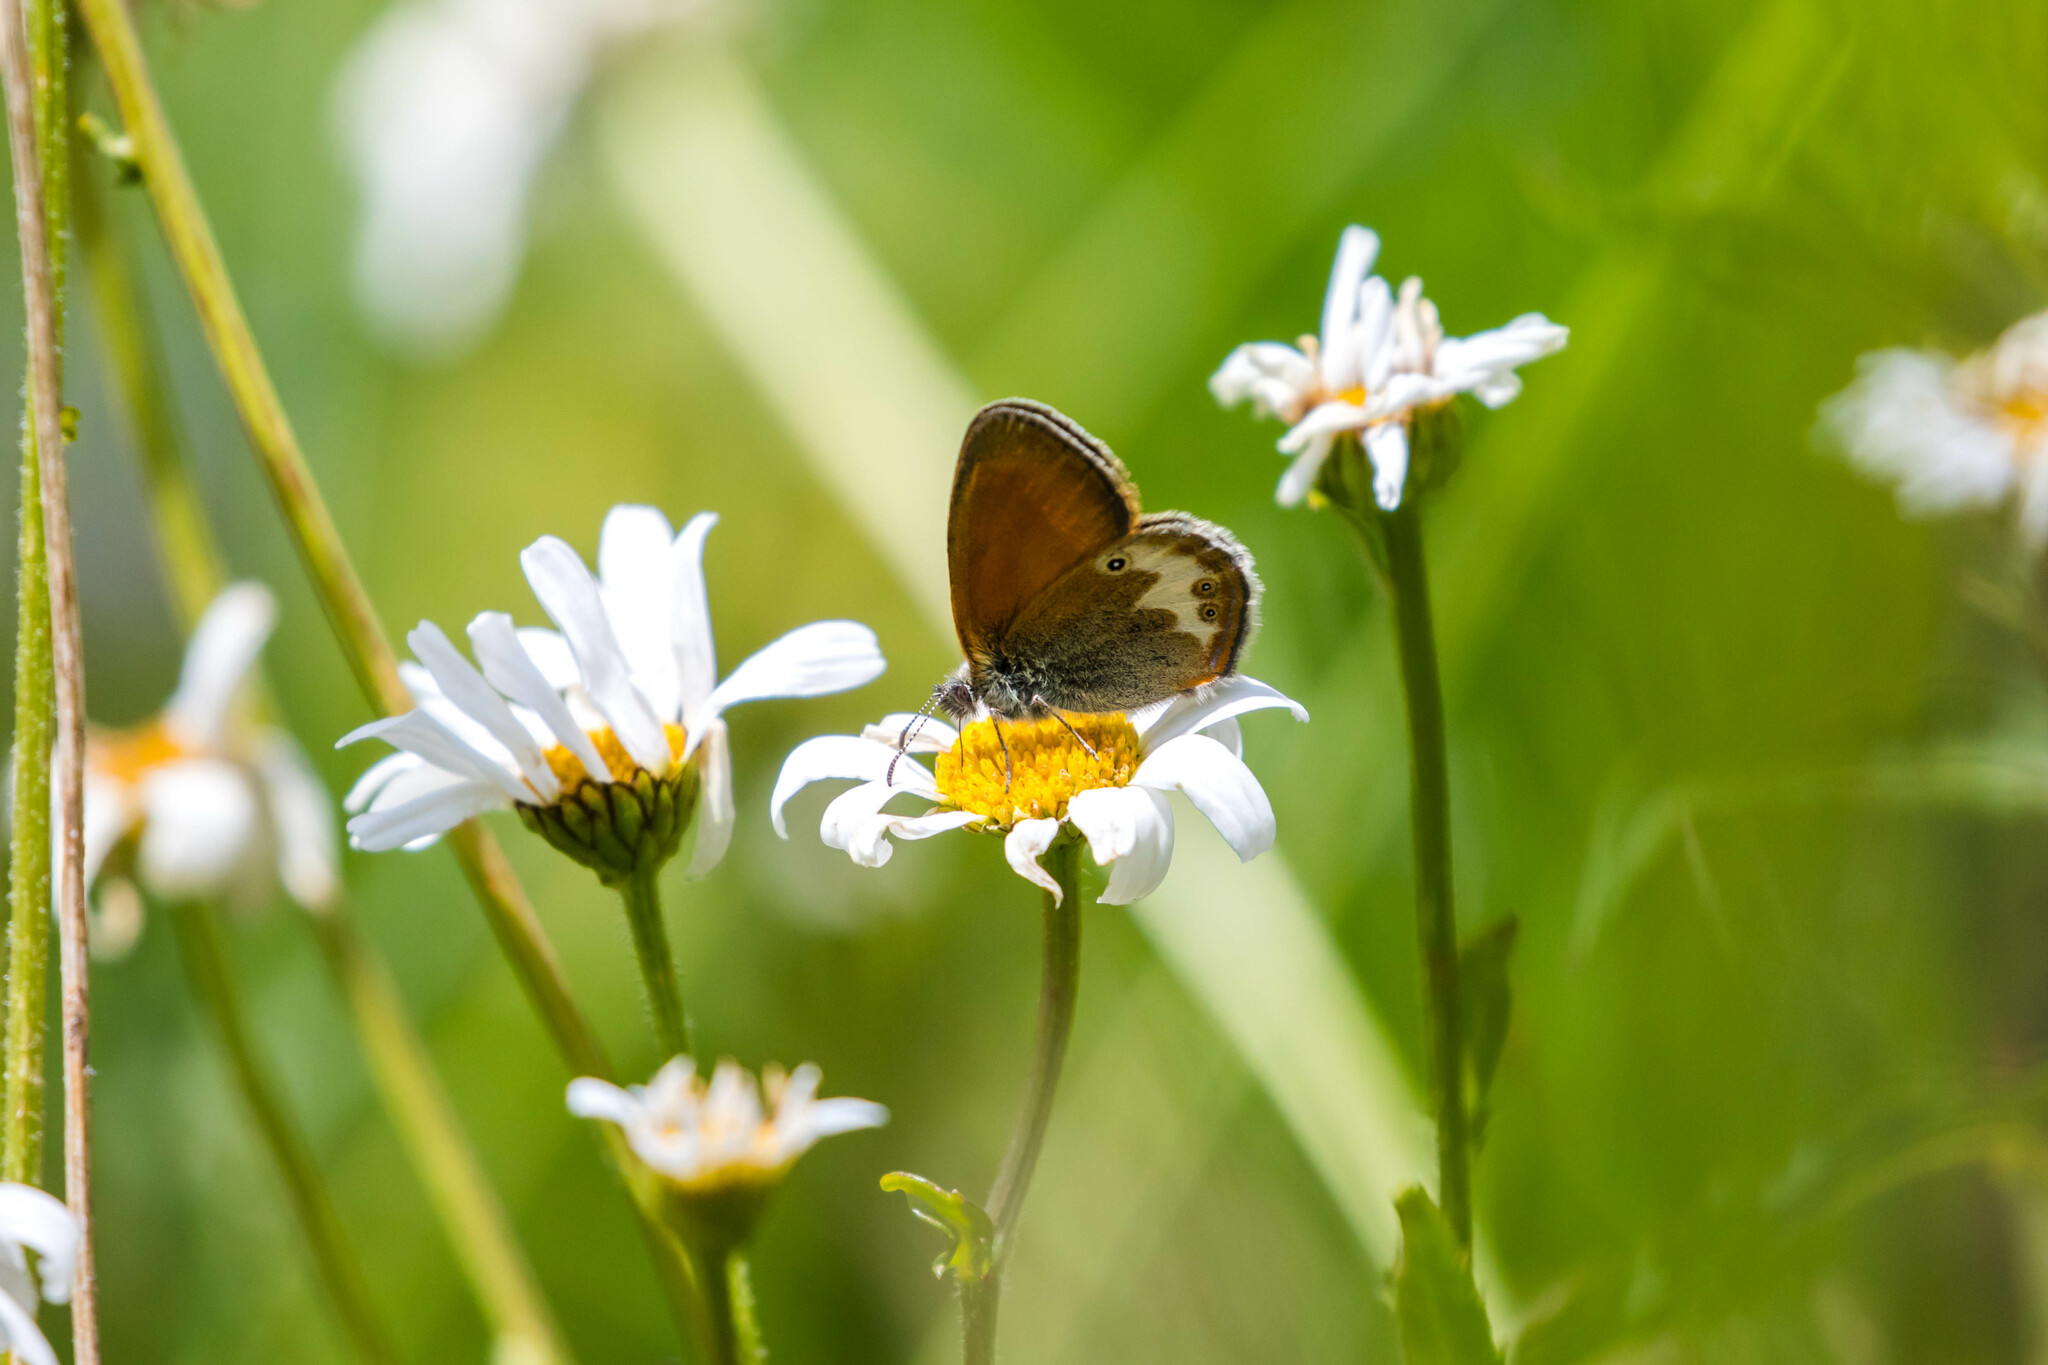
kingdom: Animalia
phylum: Arthropoda
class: Insecta
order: Lepidoptera
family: Nymphalidae
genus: Coenonympha
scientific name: Coenonympha arcania
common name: Pearly heath
